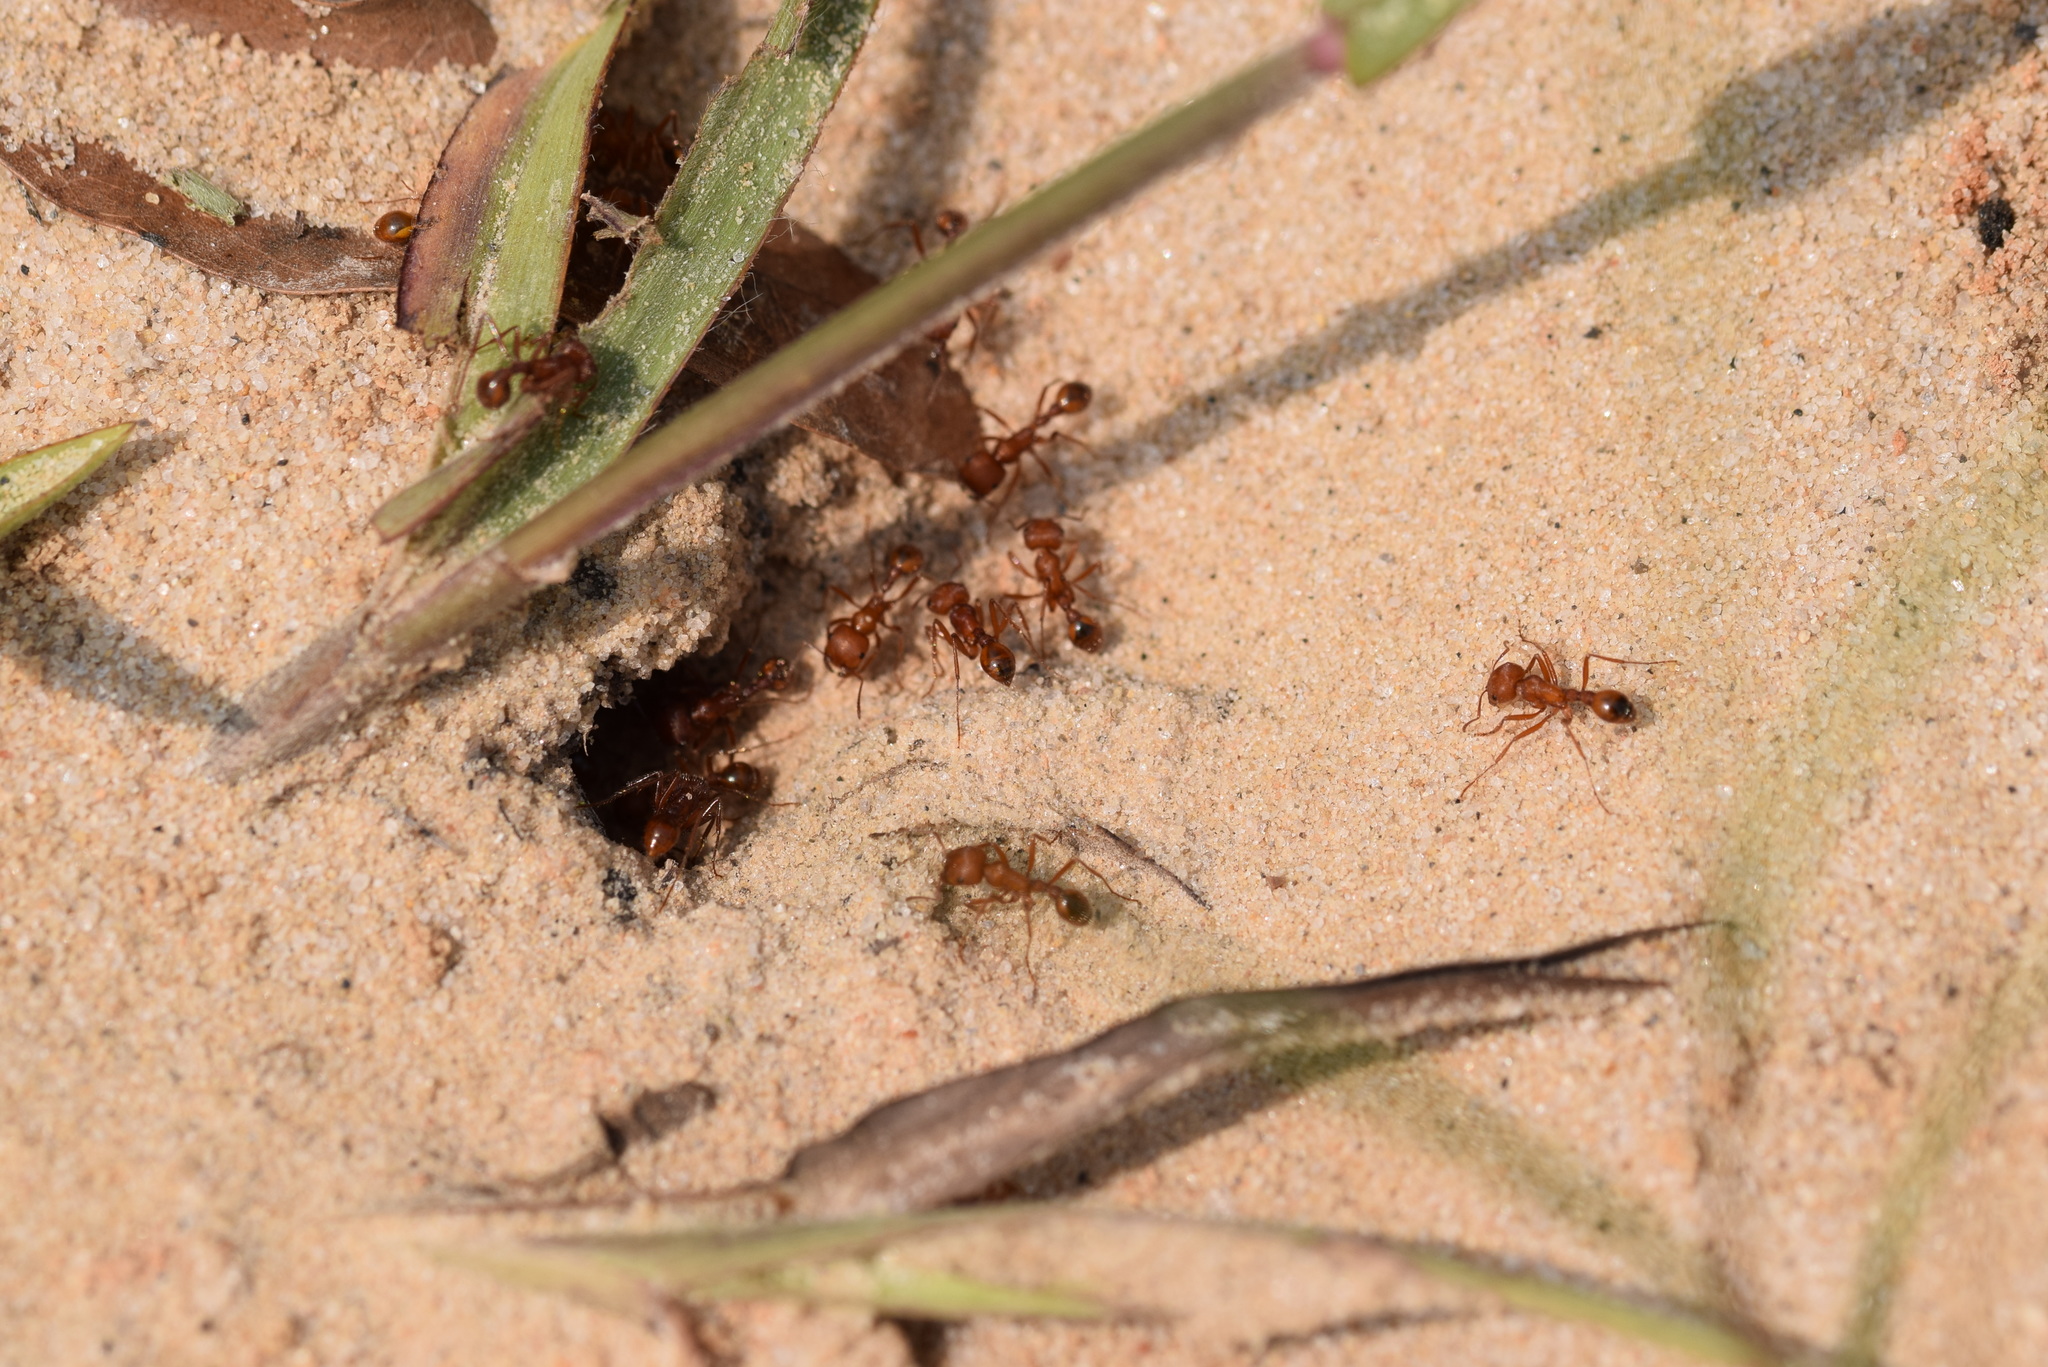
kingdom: Animalia
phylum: Arthropoda
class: Insecta
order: Hymenoptera
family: Formicidae
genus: Pogonomyrmex
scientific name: Pogonomyrmex comanche
